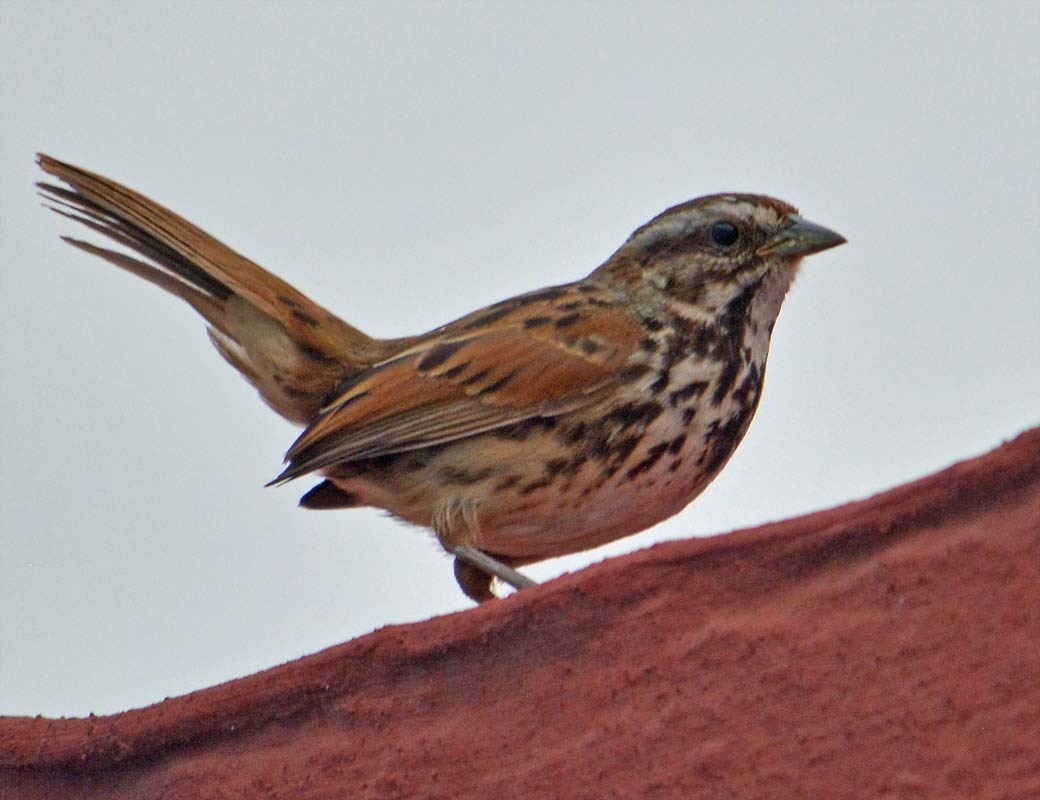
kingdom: Animalia
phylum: Chordata
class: Aves
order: Passeriformes
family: Passerellidae
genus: Melospiza
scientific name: Melospiza melodia
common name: Song sparrow
